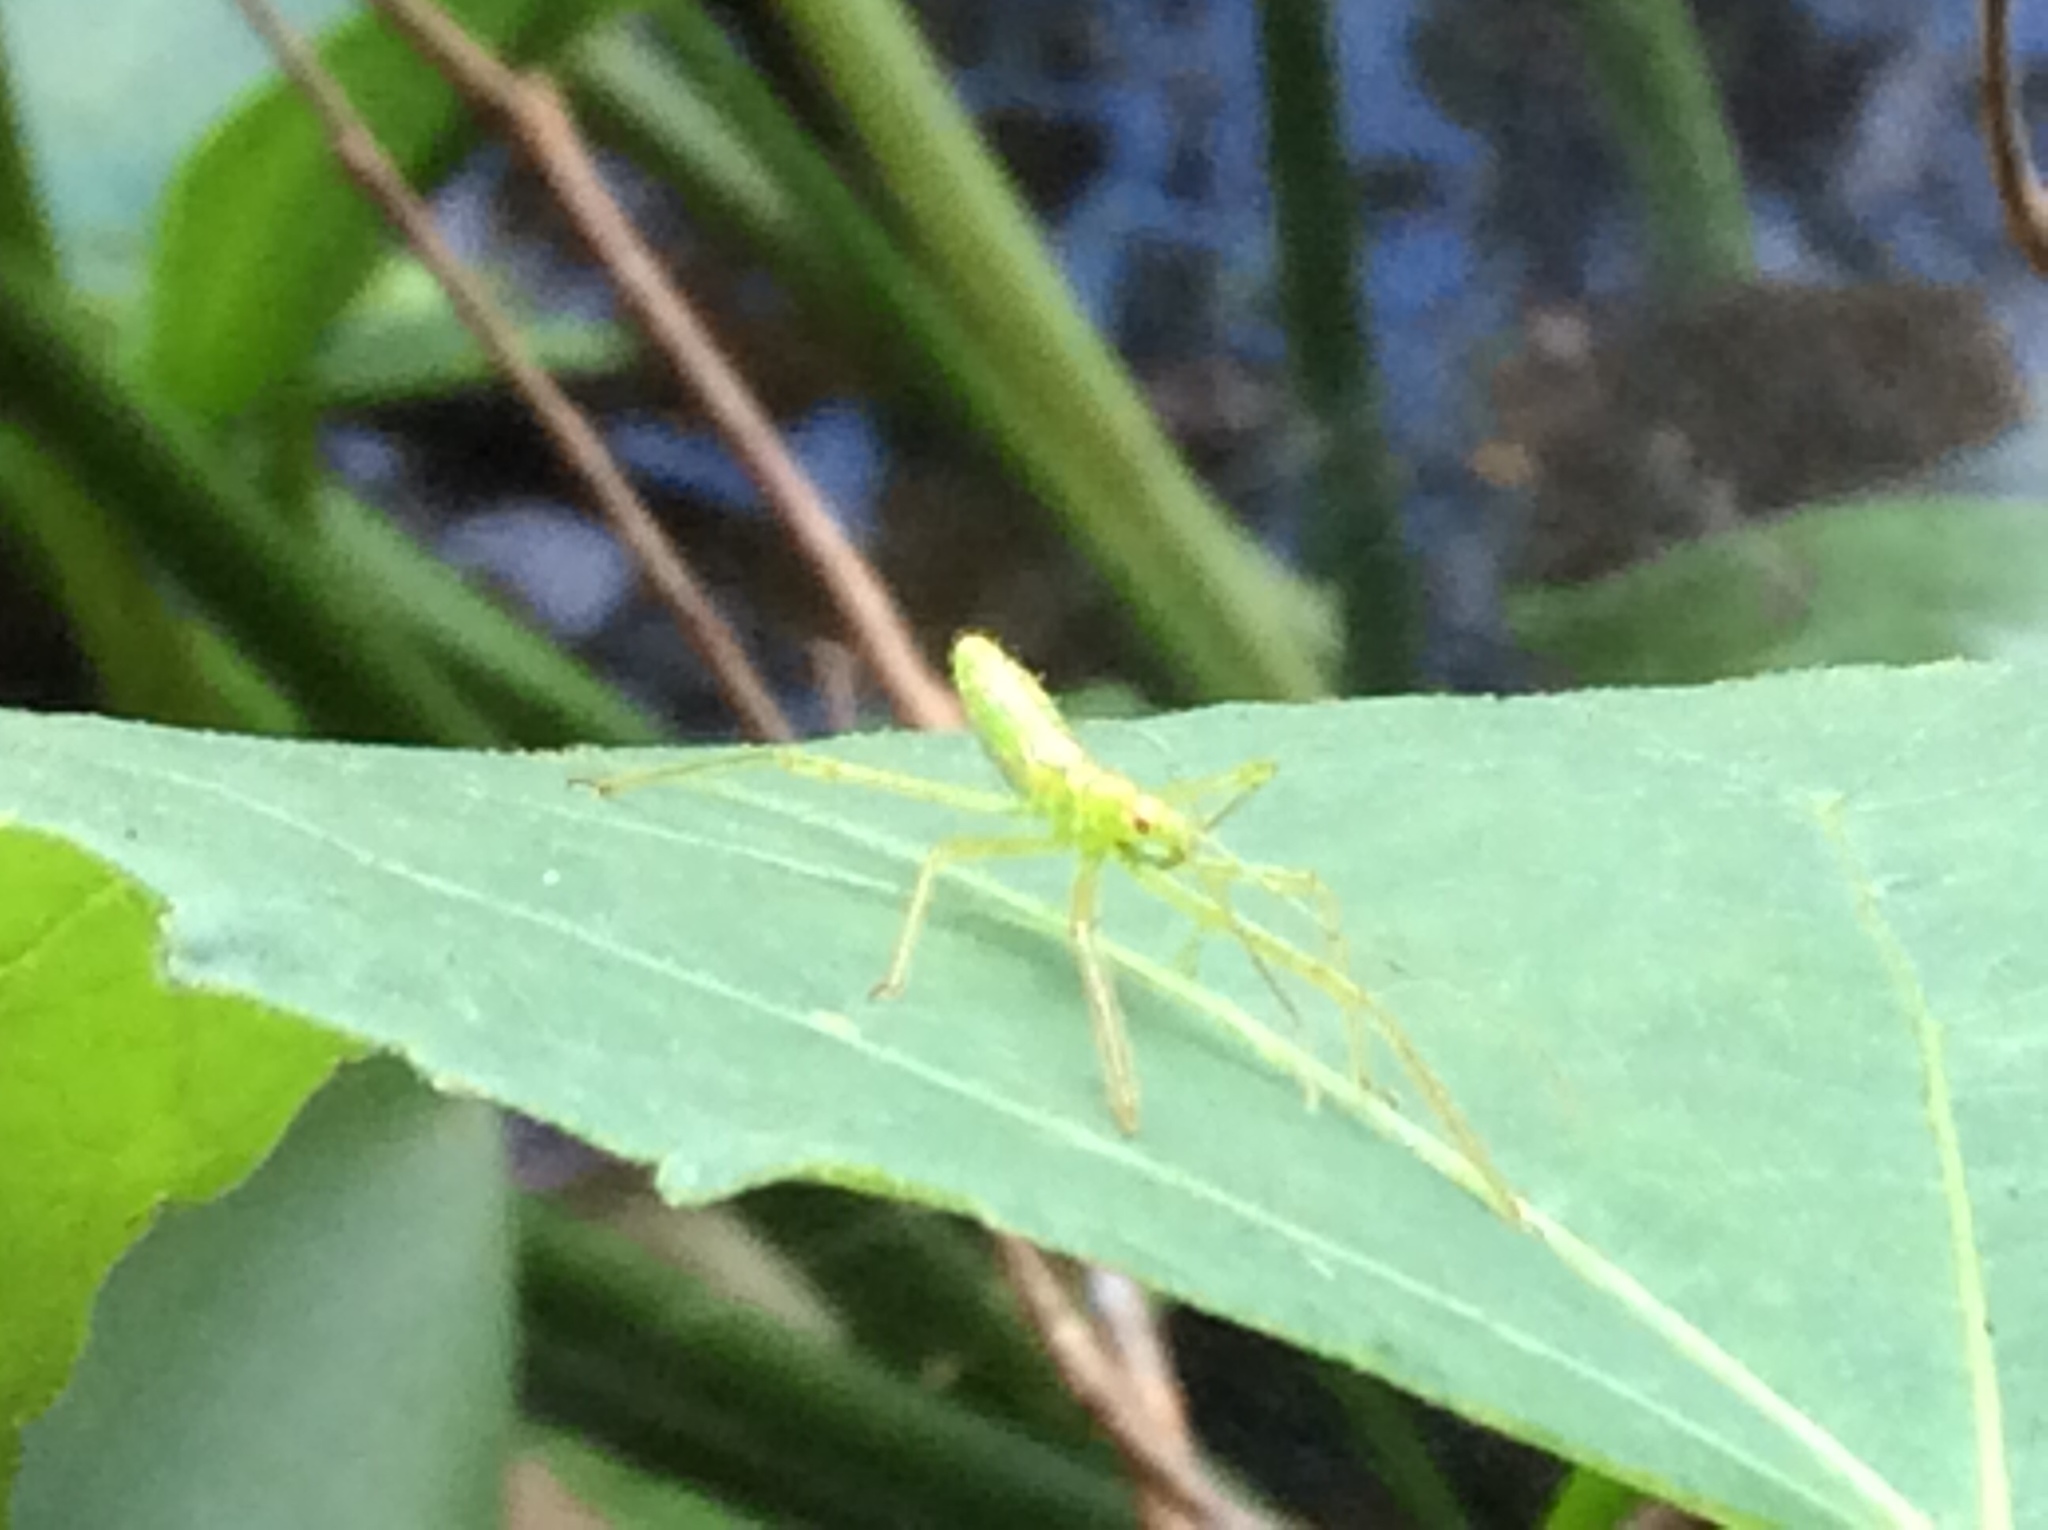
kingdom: Animalia
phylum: Arthropoda
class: Insecta
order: Hemiptera
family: Reduviidae
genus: Zelus
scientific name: Zelus luridus
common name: Pale green assassin bug
